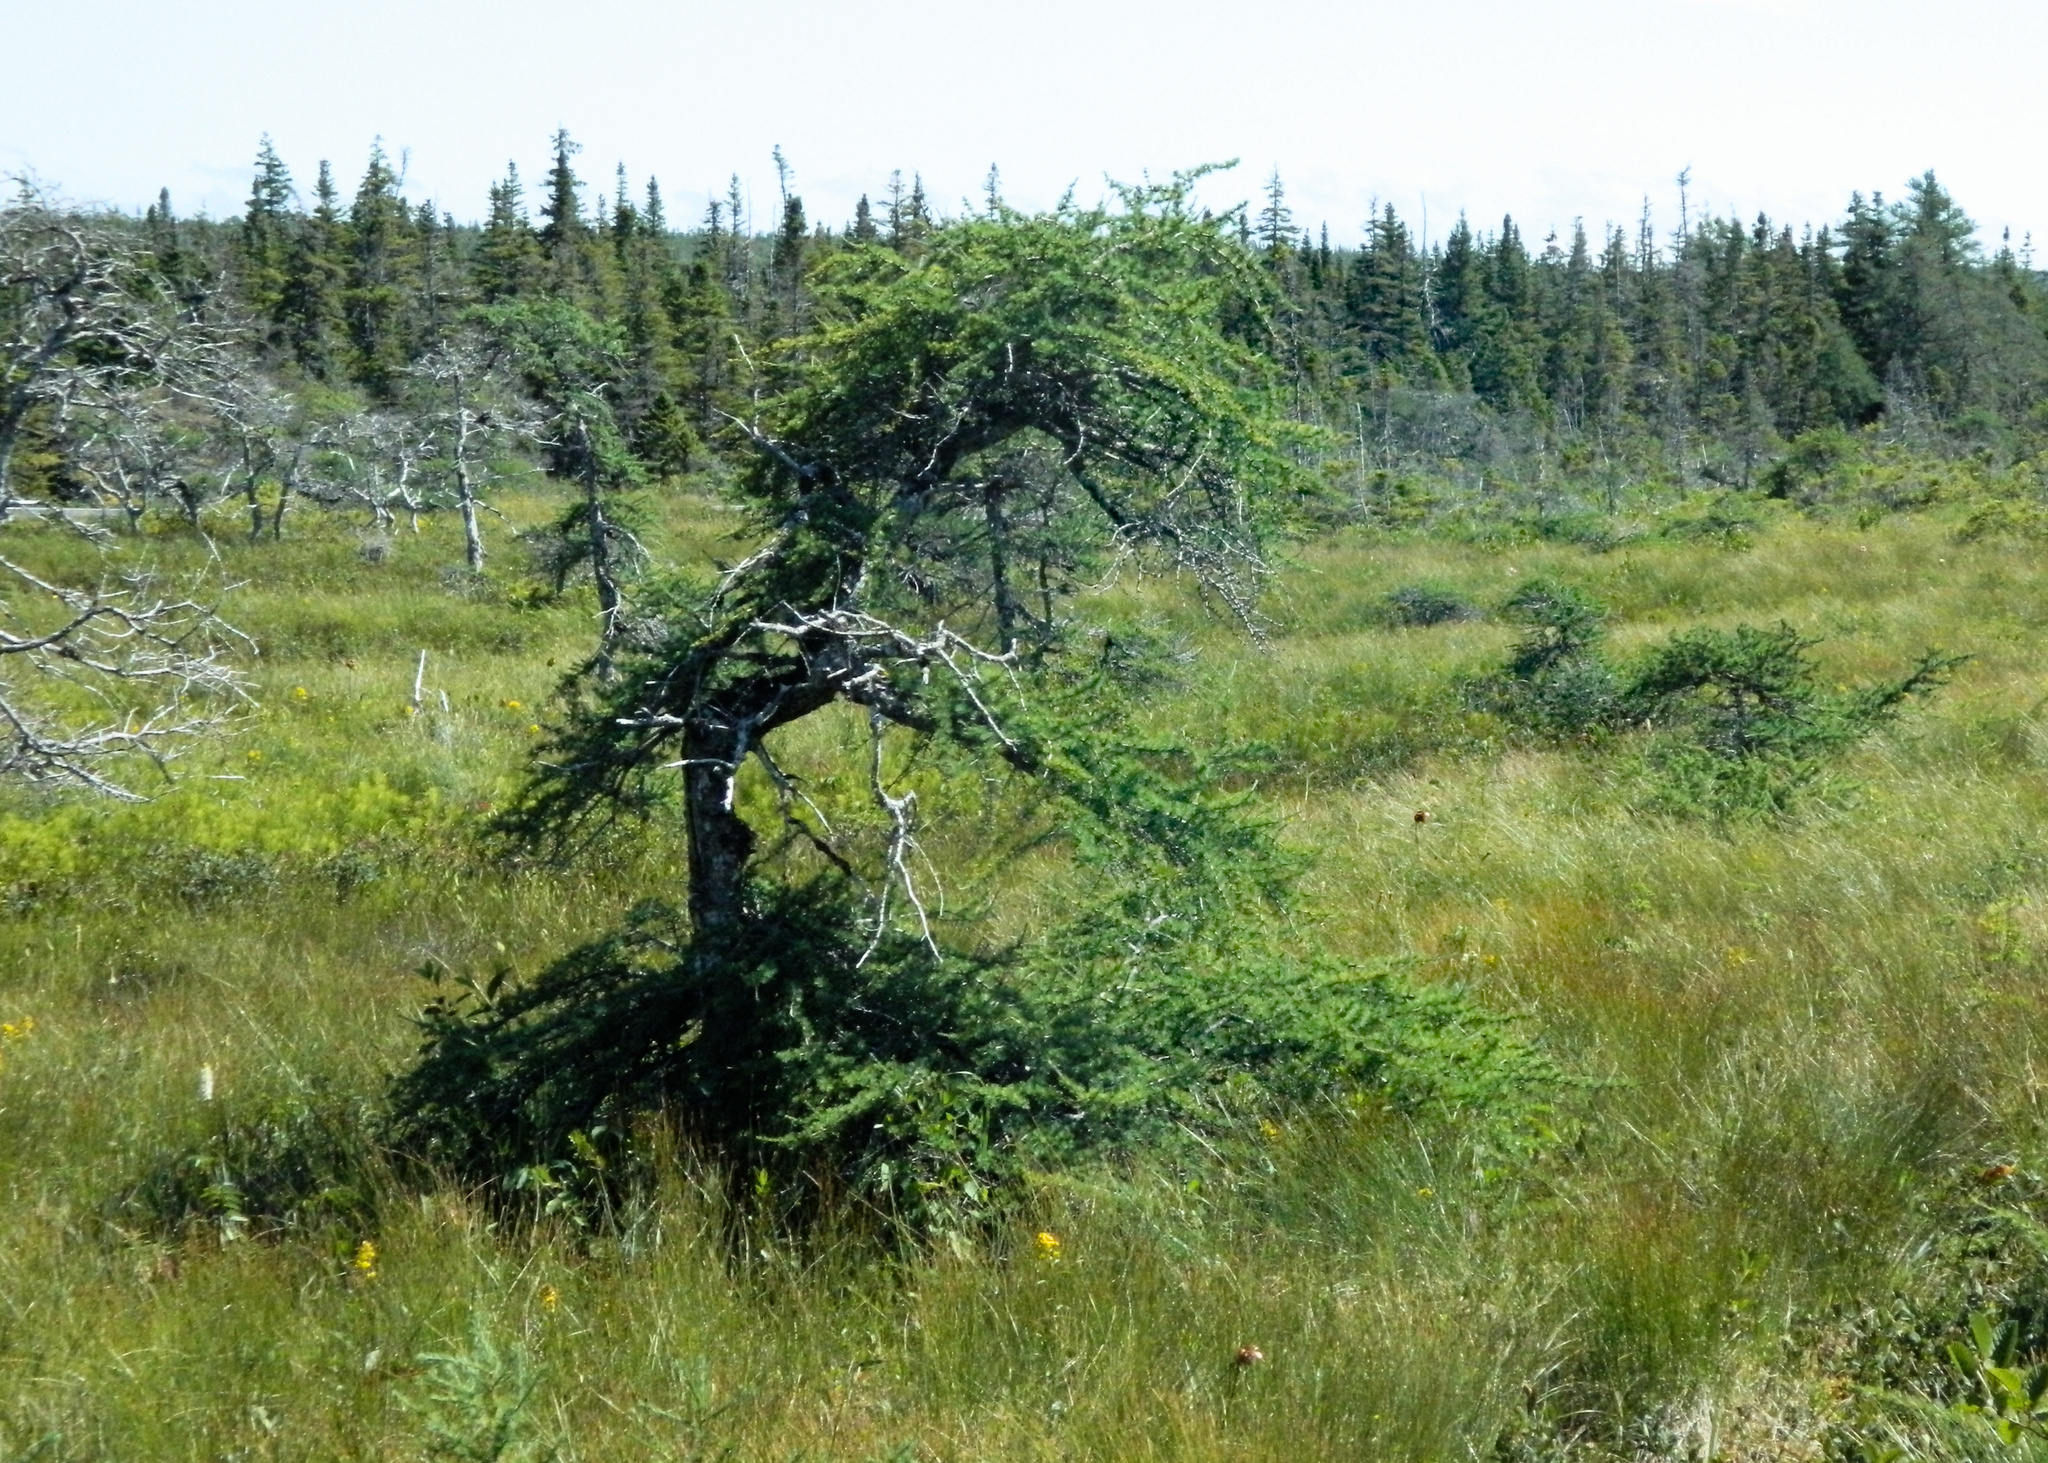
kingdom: Plantae
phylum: Tracheophyta
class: Pinopsida
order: Pinales
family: Pinaceae
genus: Larix
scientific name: Larix laricina
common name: American larch
